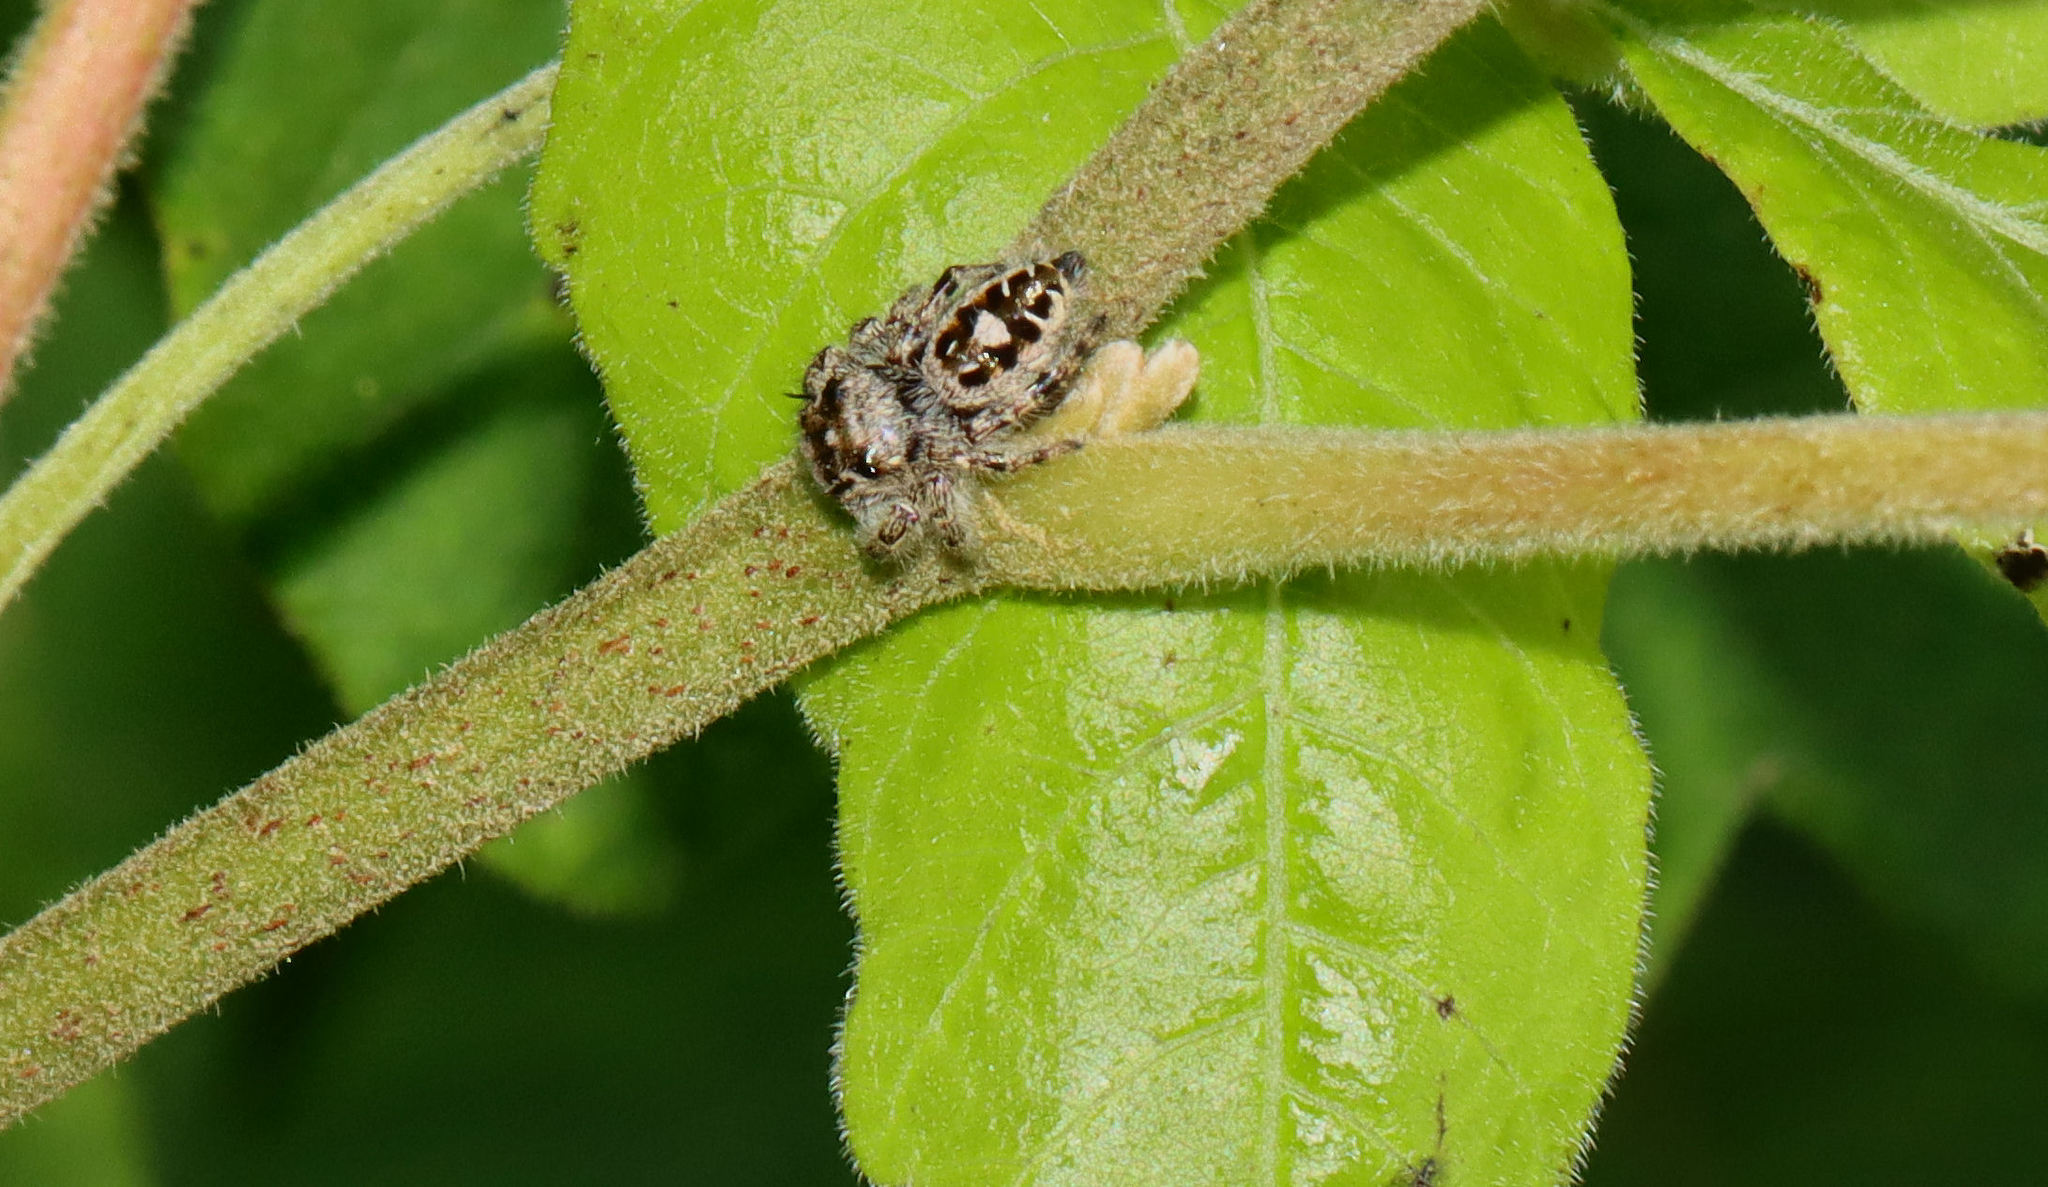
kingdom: Animalia
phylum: Arthropoda
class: Arachnida
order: Araneae
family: Salticidae
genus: Phidippus
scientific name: Phidippus putnami
